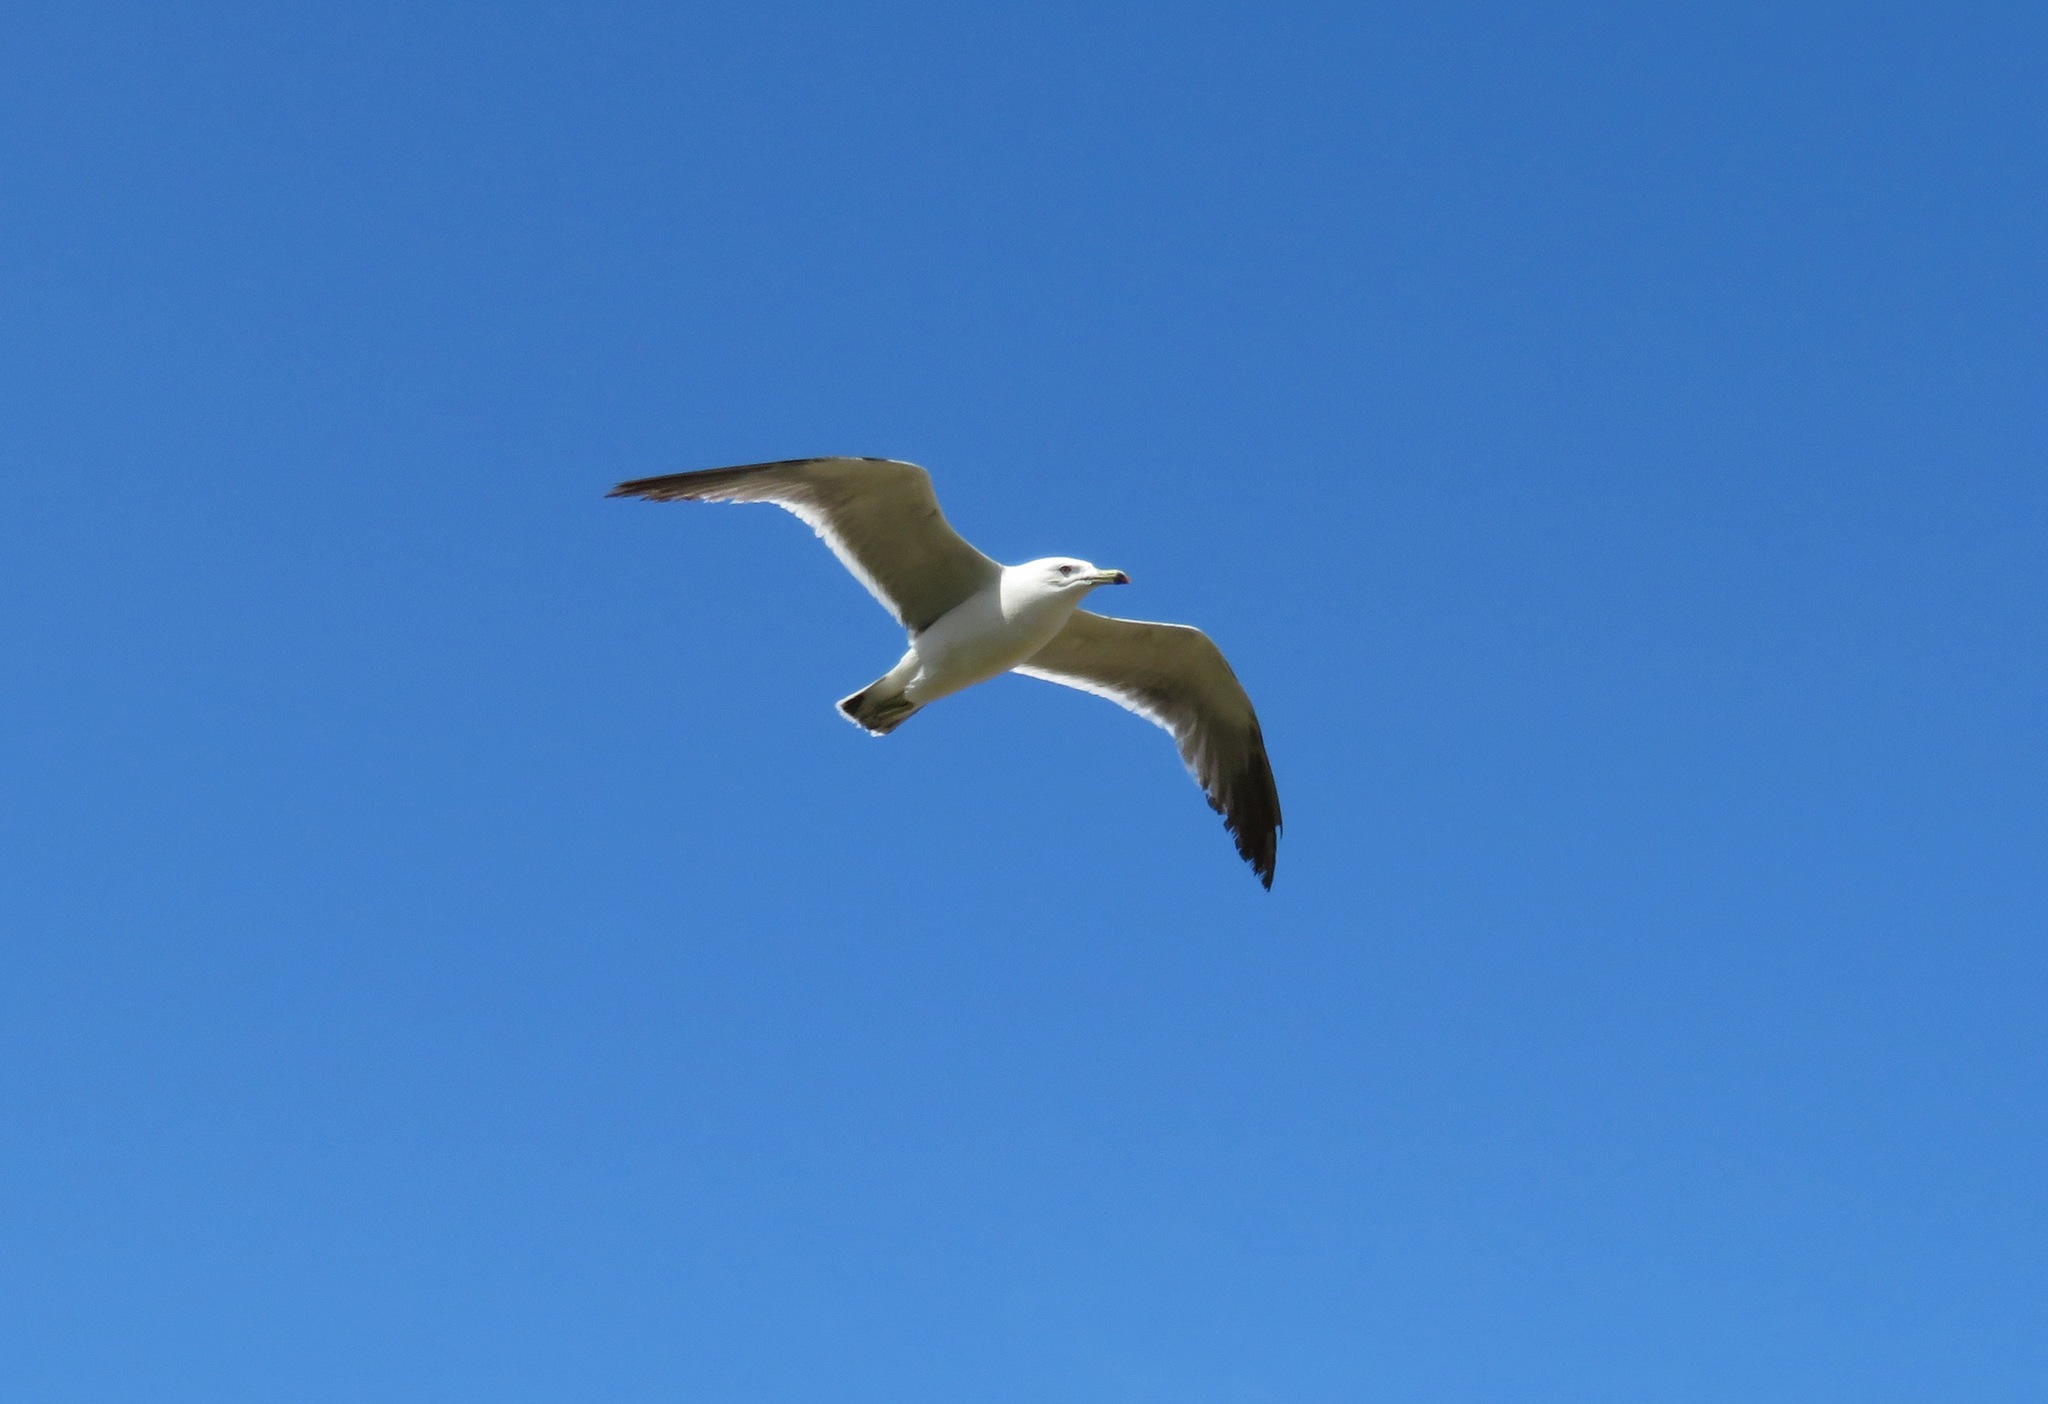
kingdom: Animalia
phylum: Chordata
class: Aves
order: Charadriiformes
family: Laridae
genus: Larus
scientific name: Larus crassirostris
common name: Black-tailed gull
